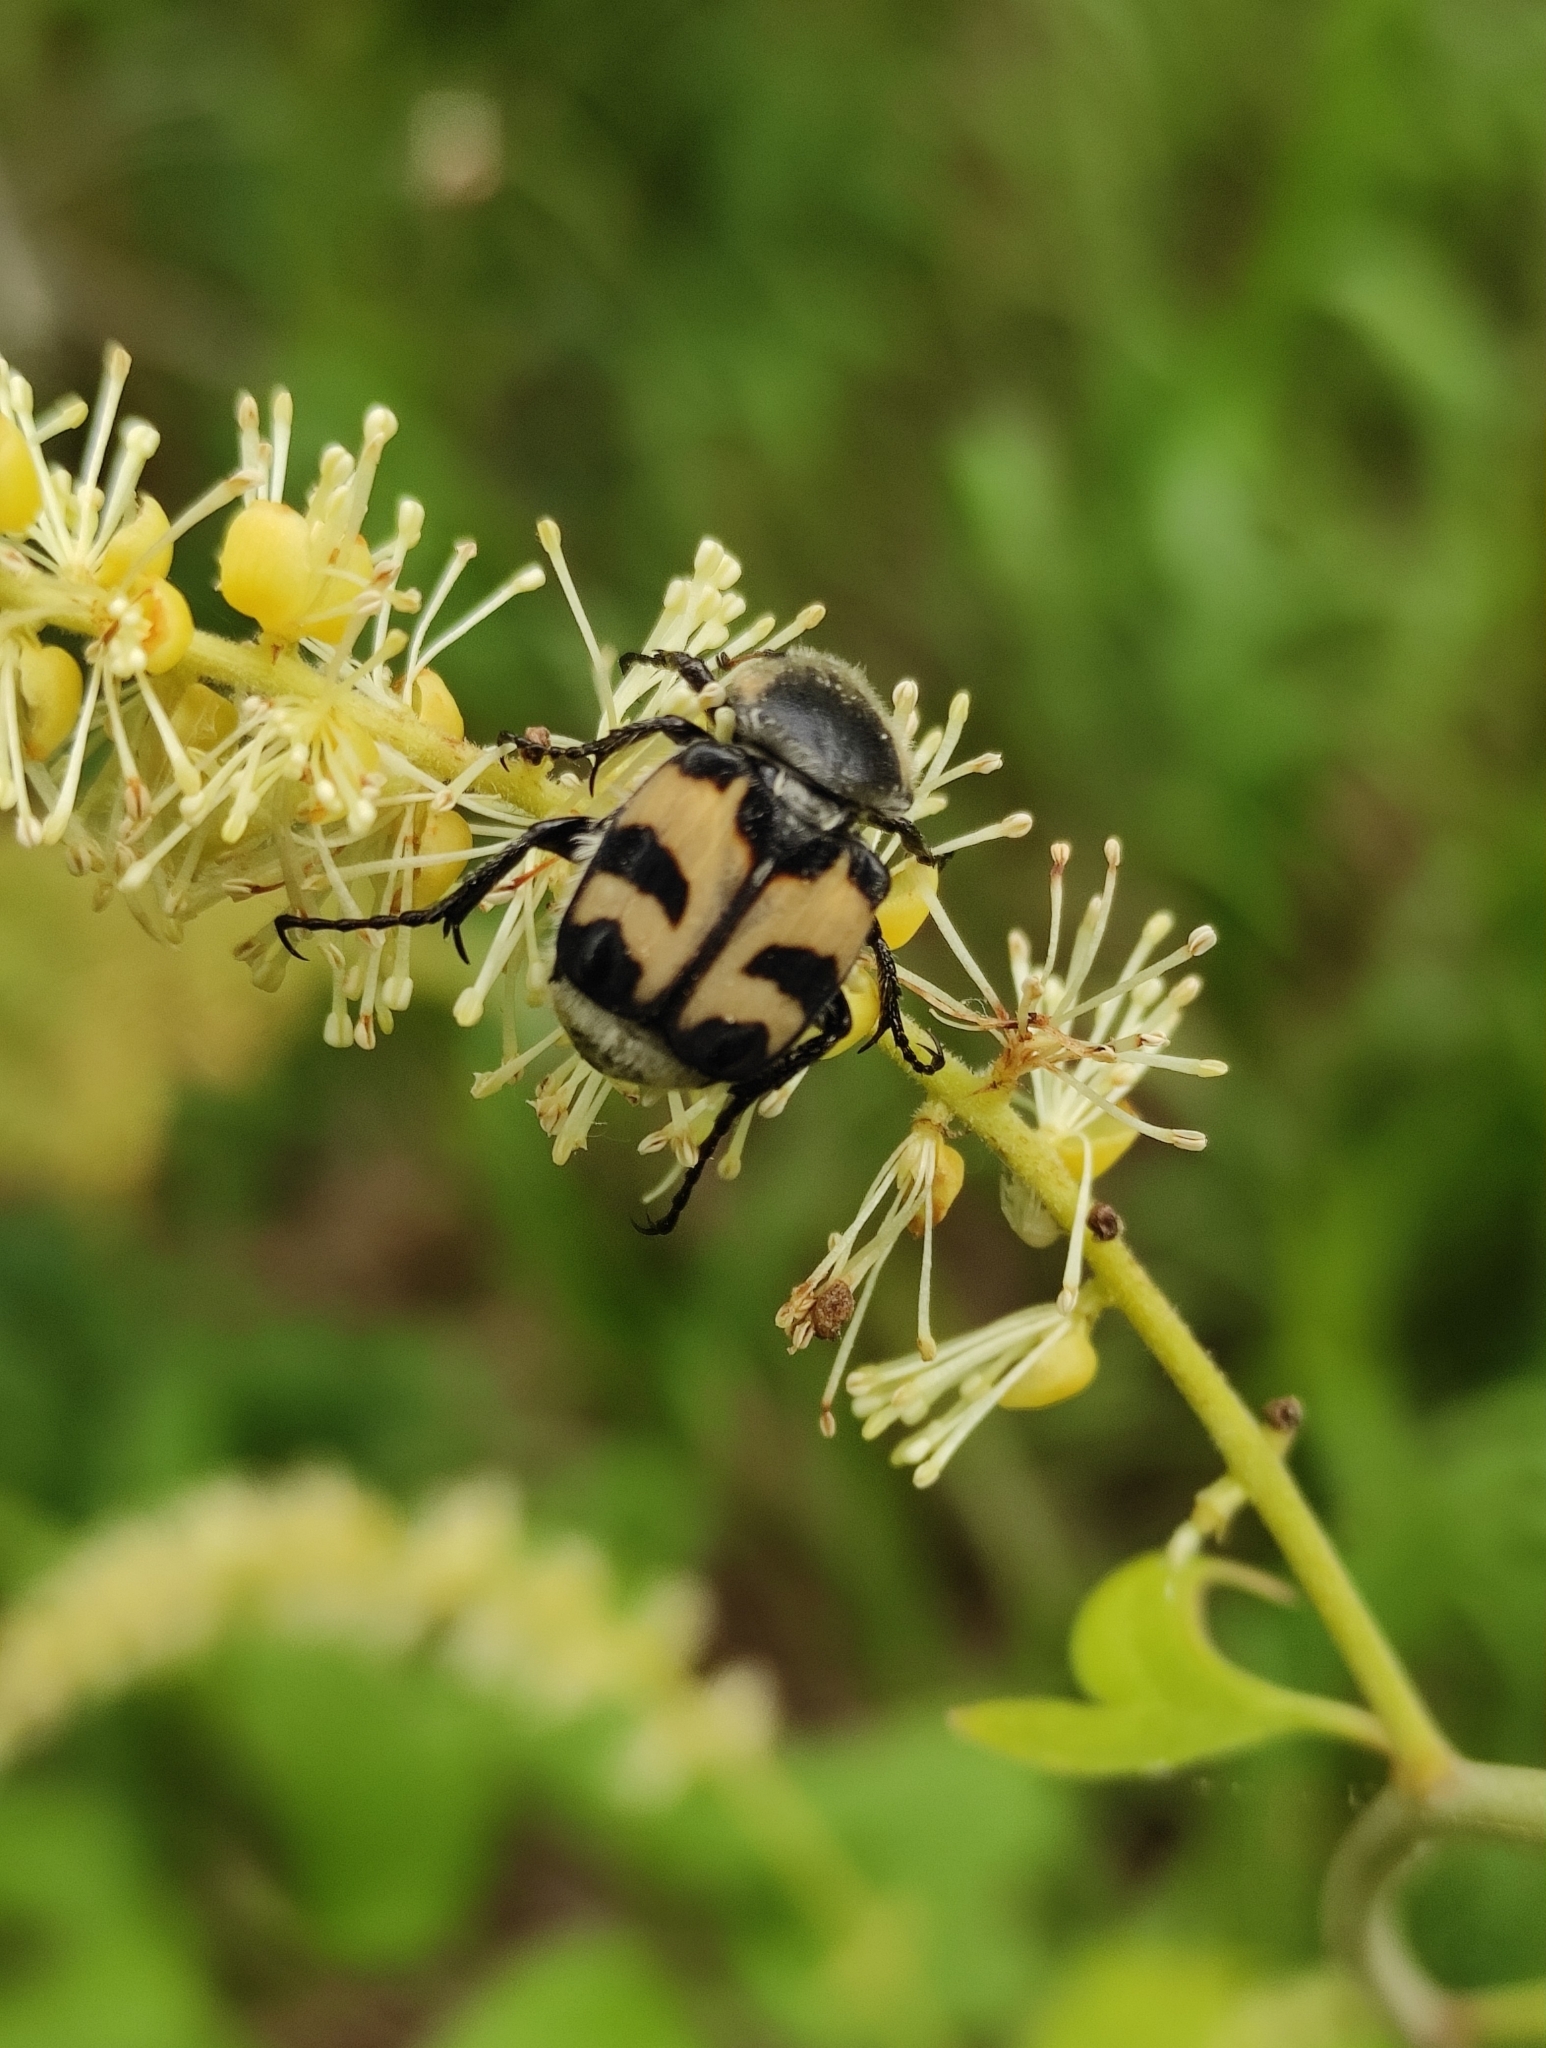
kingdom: Animalia
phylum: Arthropoda
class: Insecta
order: Coleoptera
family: Scarabaeidae
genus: Trichius
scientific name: Trichius fasciatus
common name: Bee beetle
